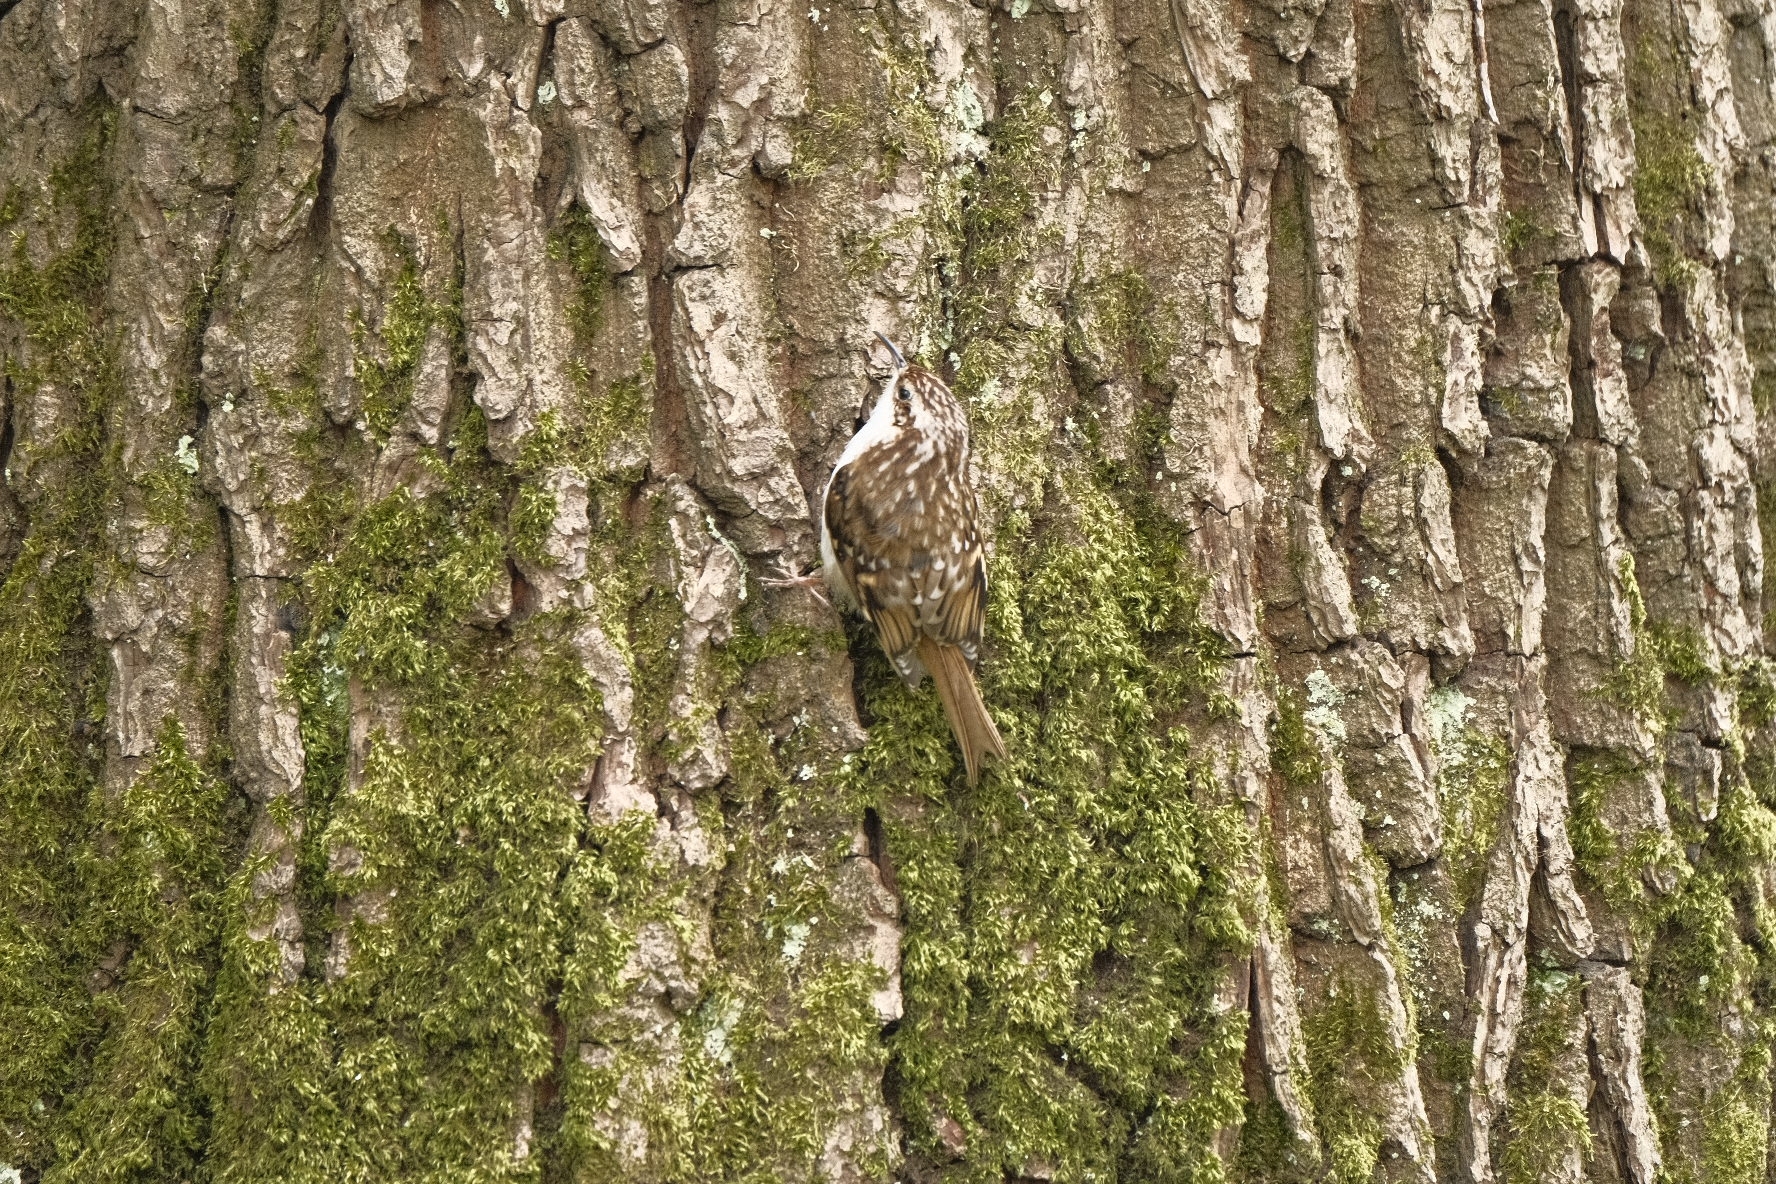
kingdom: Animalia
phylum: Chordata
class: Aves
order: Passeriformes
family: Certhiidae
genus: Certhia
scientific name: Certhia familiaris
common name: Eurasian treecreeper
